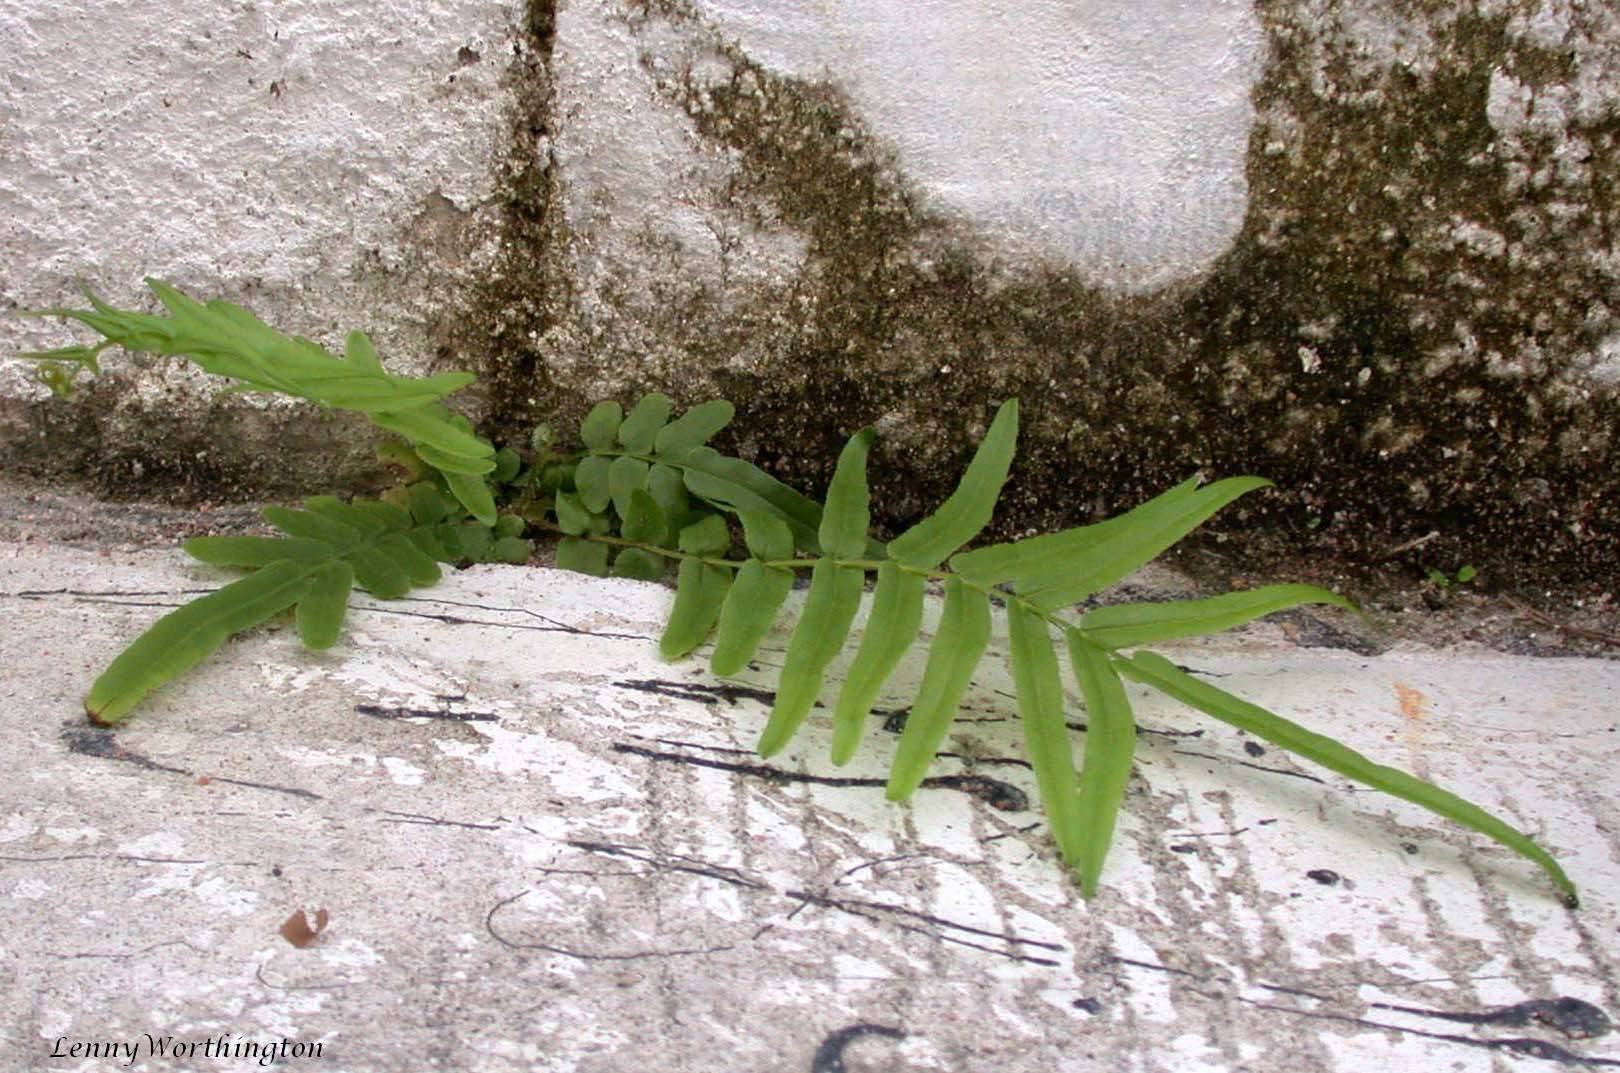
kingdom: Plantae
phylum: Tracheophyta
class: Polypodiopsida
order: Polypodiales
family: Pteridaceae
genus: Pteris
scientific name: Pteris vittata
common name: Ladder brake
